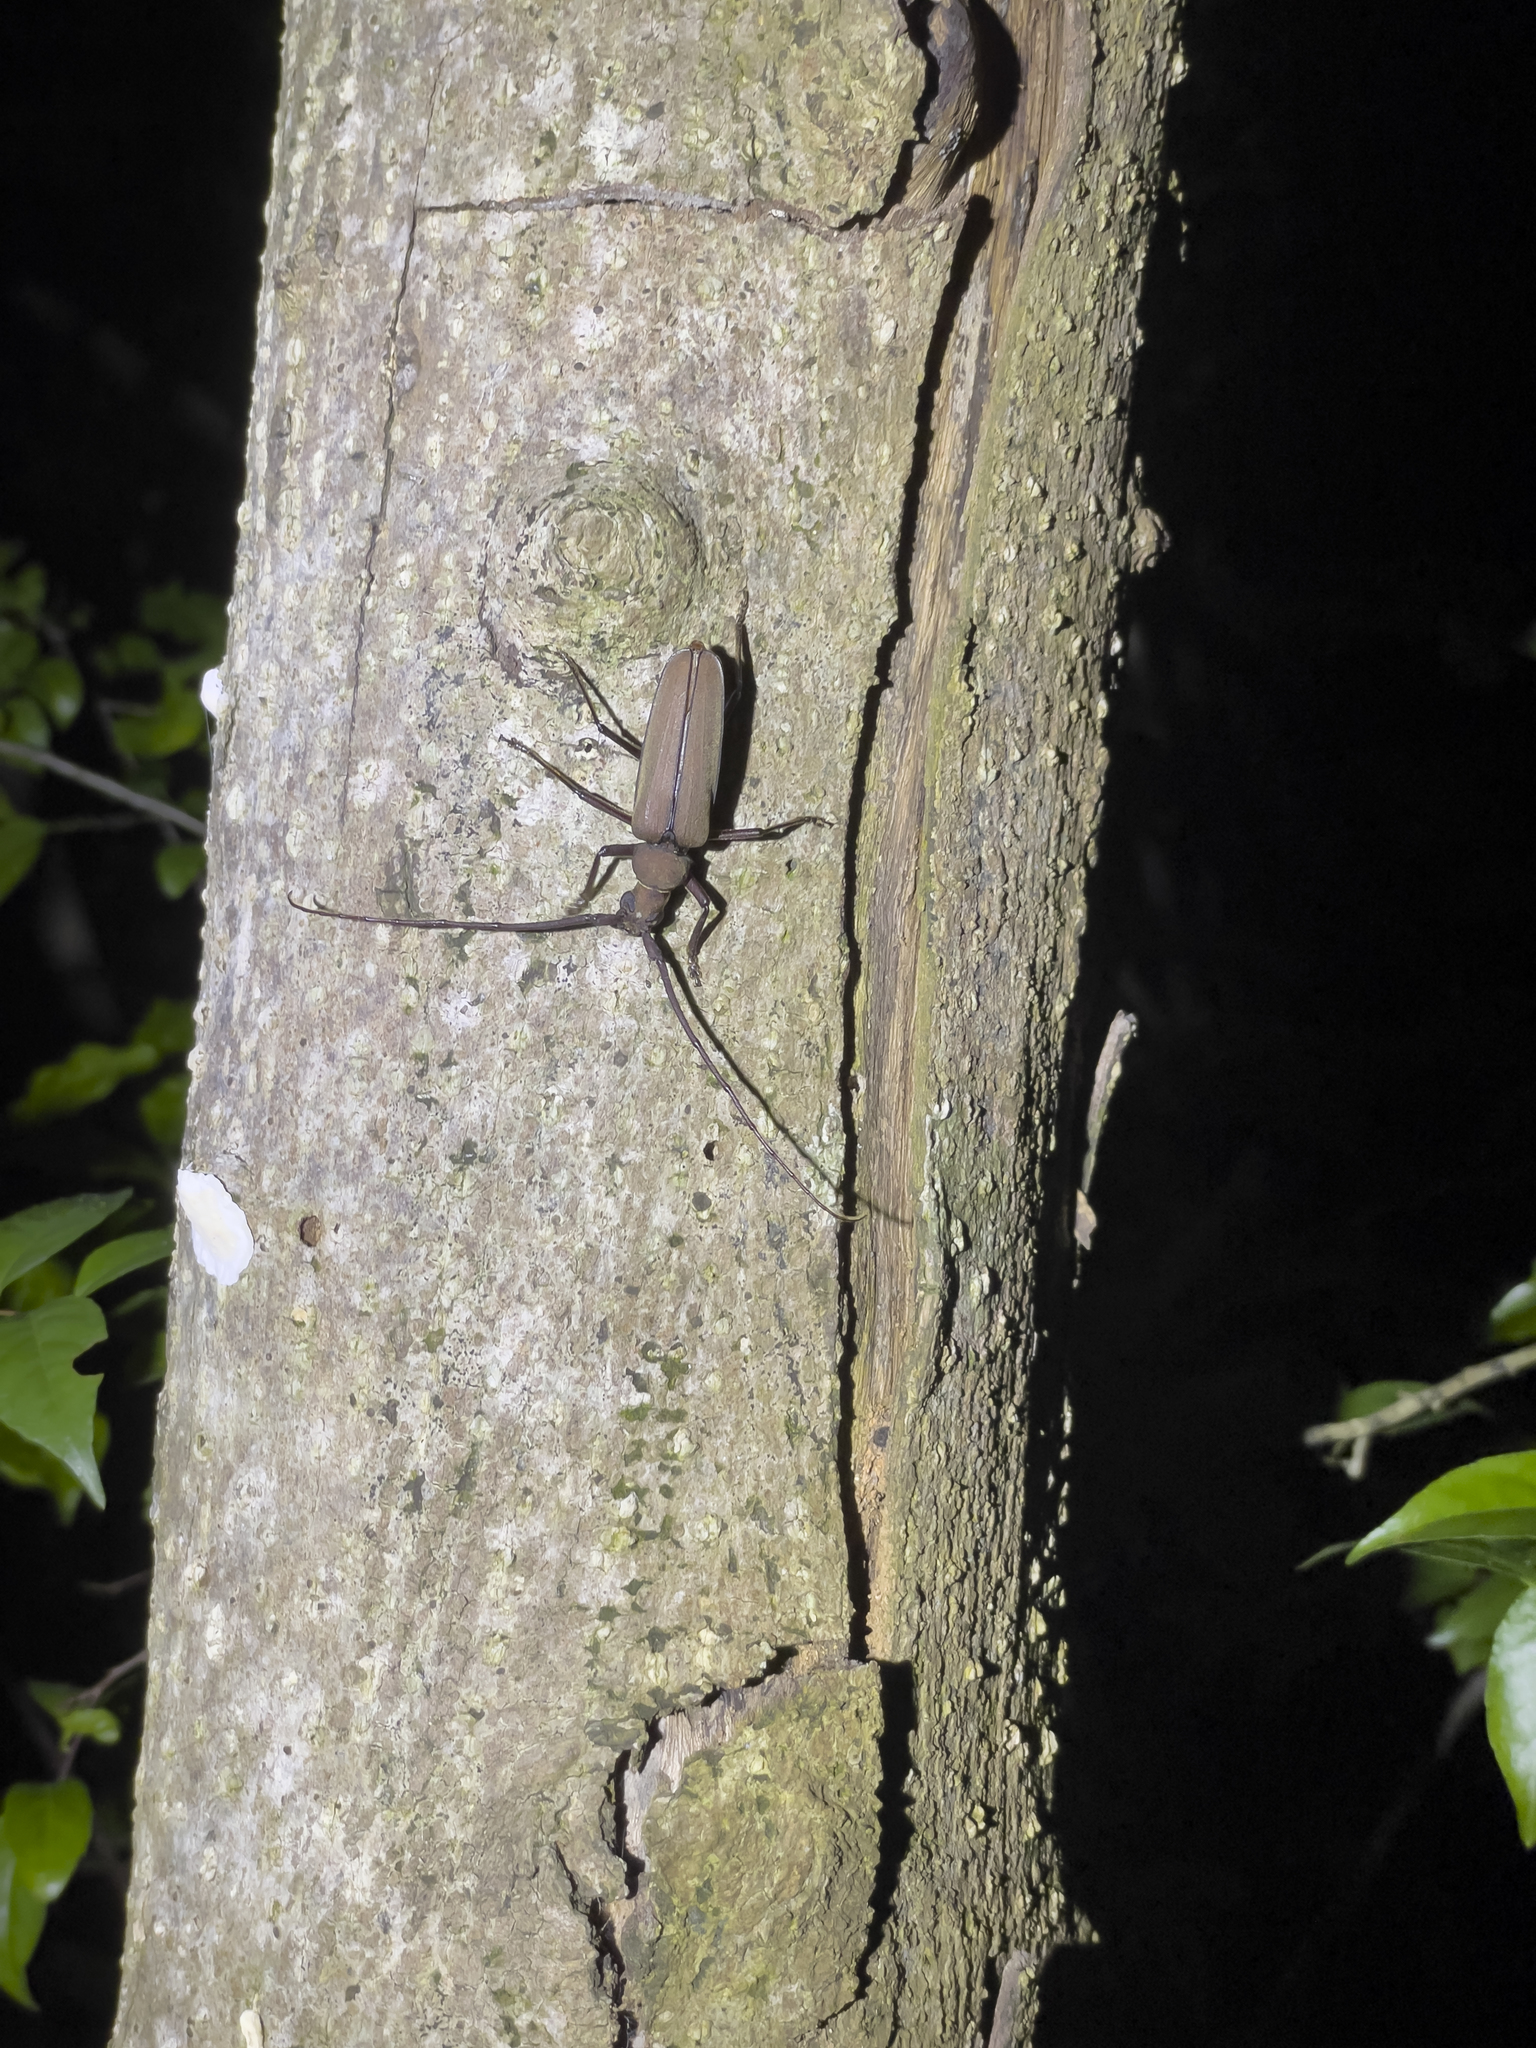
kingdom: Animalia
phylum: Arthropoda
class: Insecta
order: Coleoptera
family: Cerambycidae
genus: Aegolipton
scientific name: Aegolipton marginale
